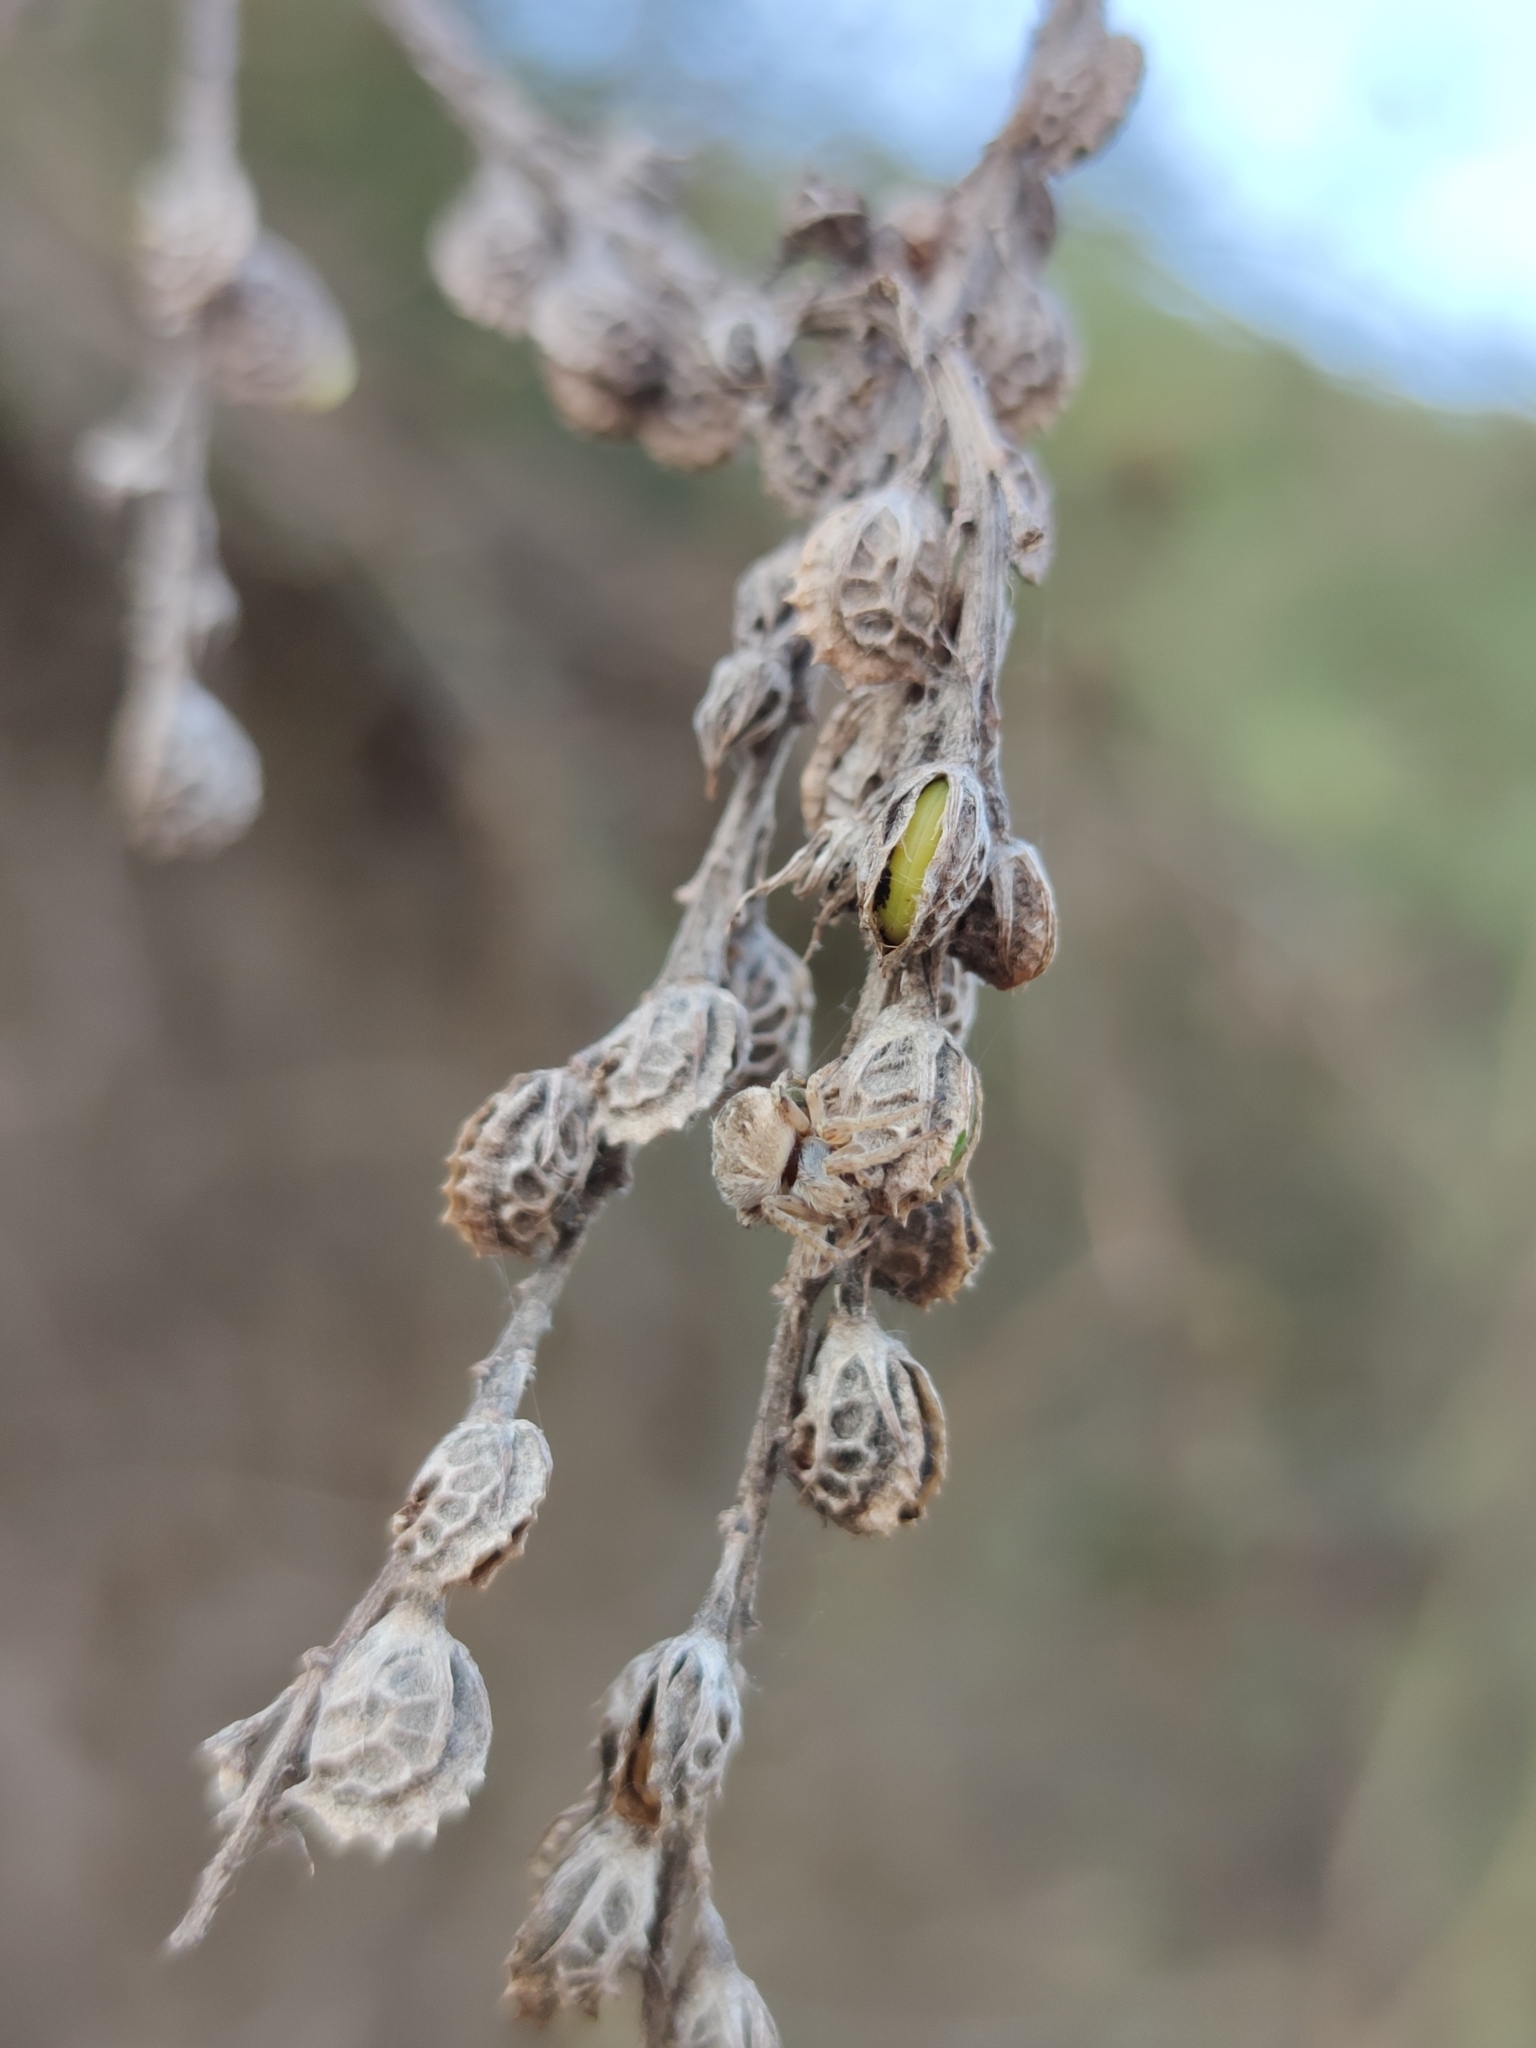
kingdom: Animalia
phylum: Arthropoda
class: Arachnida
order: Araneae
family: Araneidae
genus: Agalenatea
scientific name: Agalenatea redii
